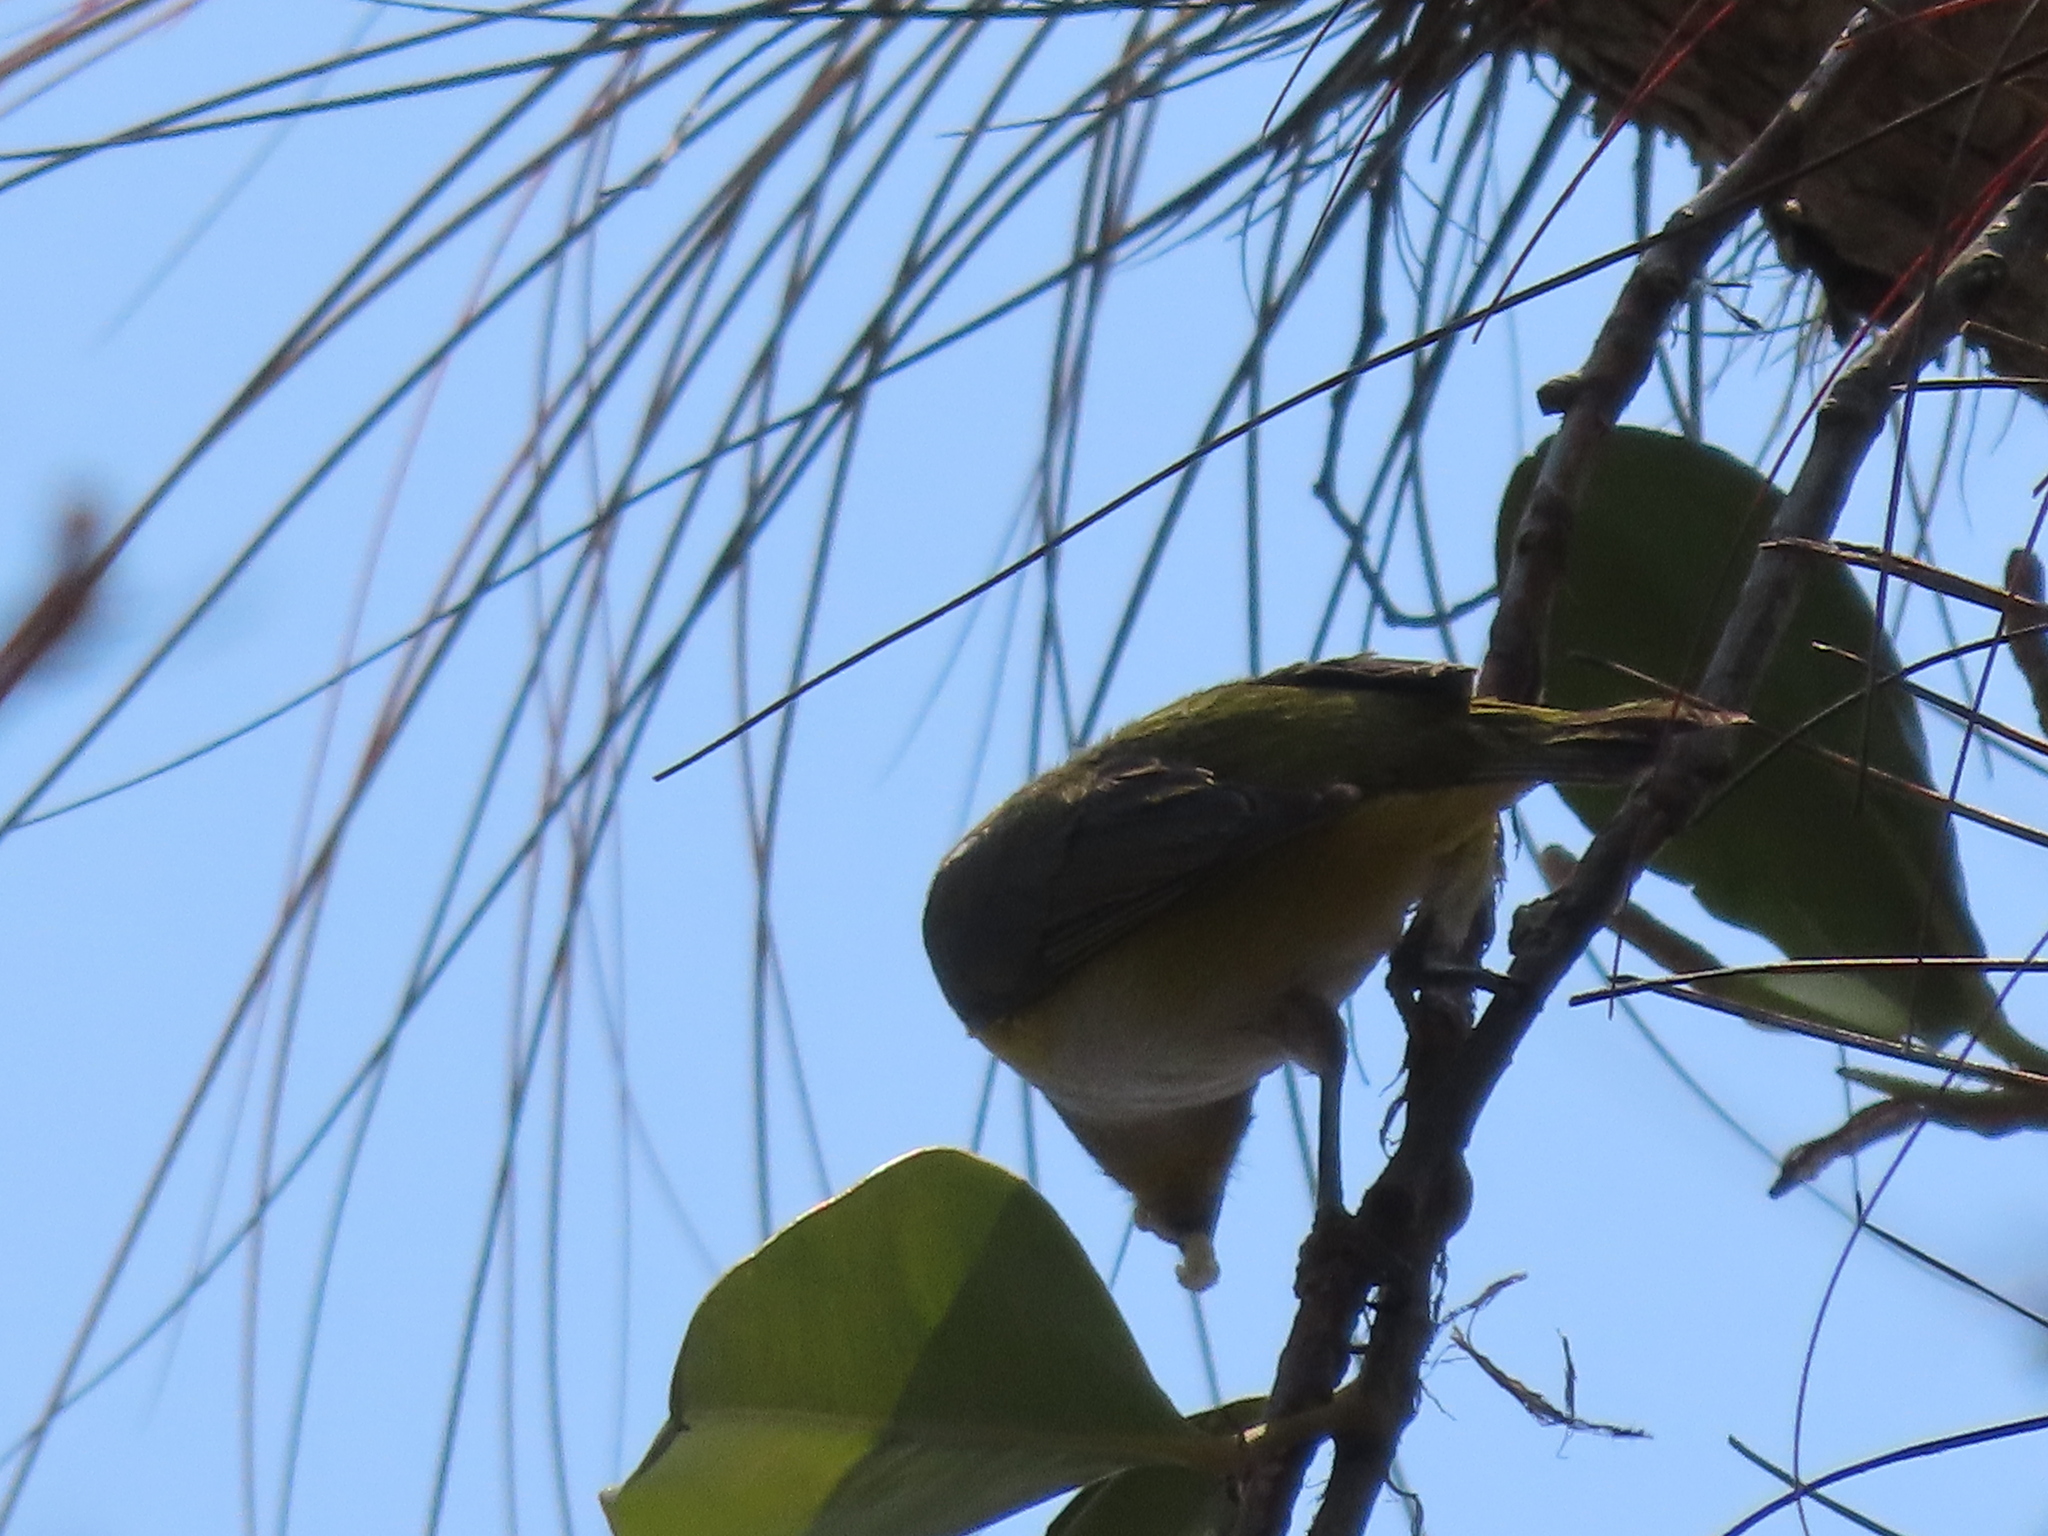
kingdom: Animalia
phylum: Chordata
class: Aves
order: Passeriformes
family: Fringillidae
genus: Euphonia
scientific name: Euphonia hirundinacea
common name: Yellow-throated euphonia
